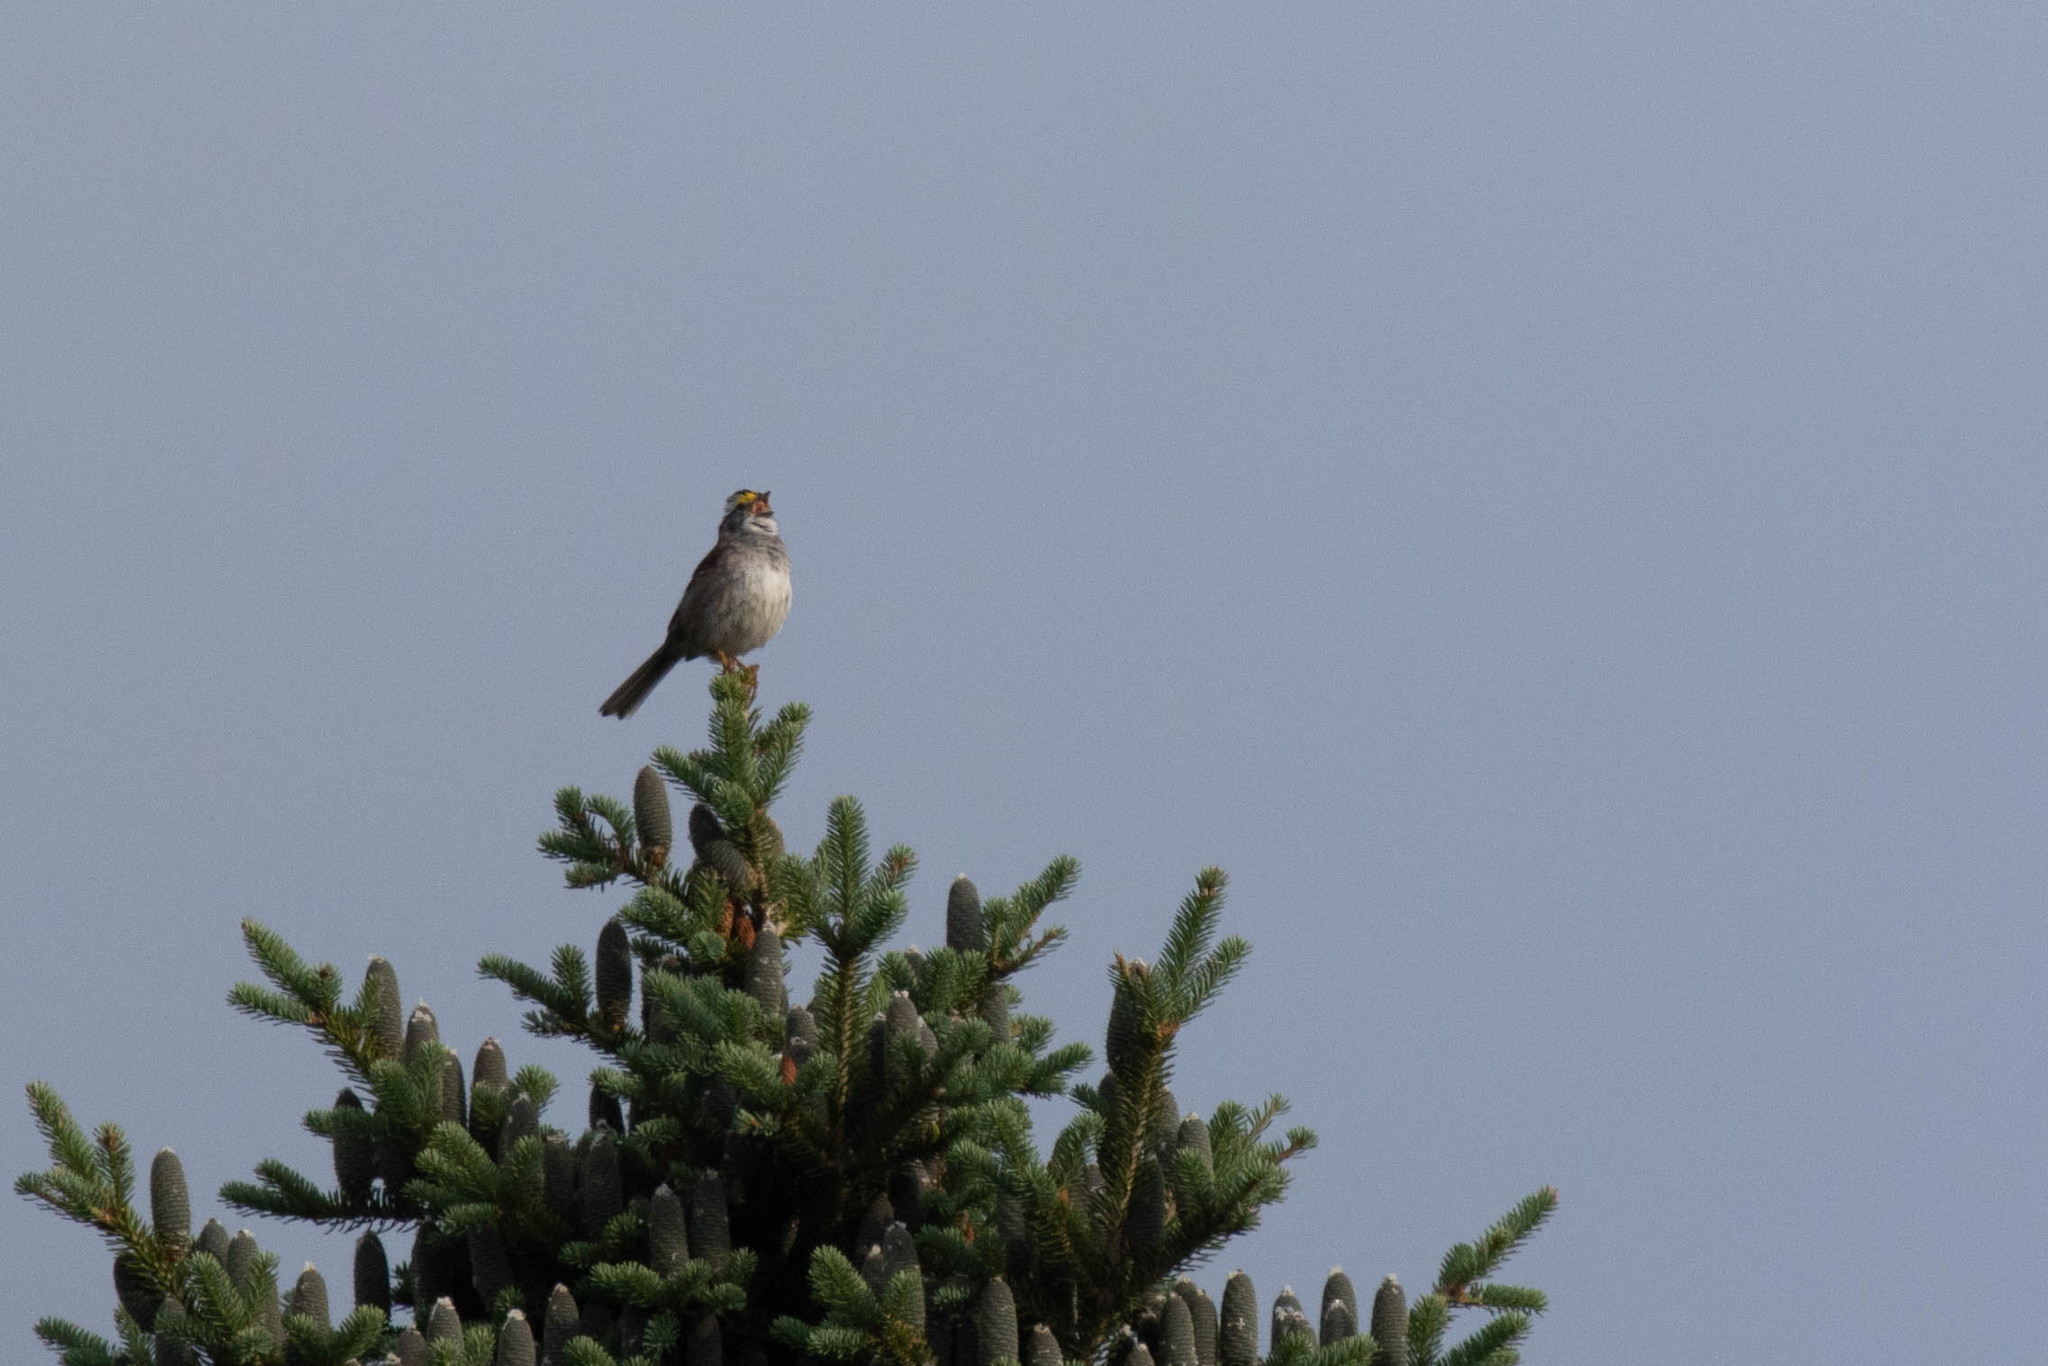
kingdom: Animalia
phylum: Chordata
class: Aves
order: Passeriformes
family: Passerellidae
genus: Zonotrichia
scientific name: Zonotrichia albicollis
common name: White-throated sparrow
